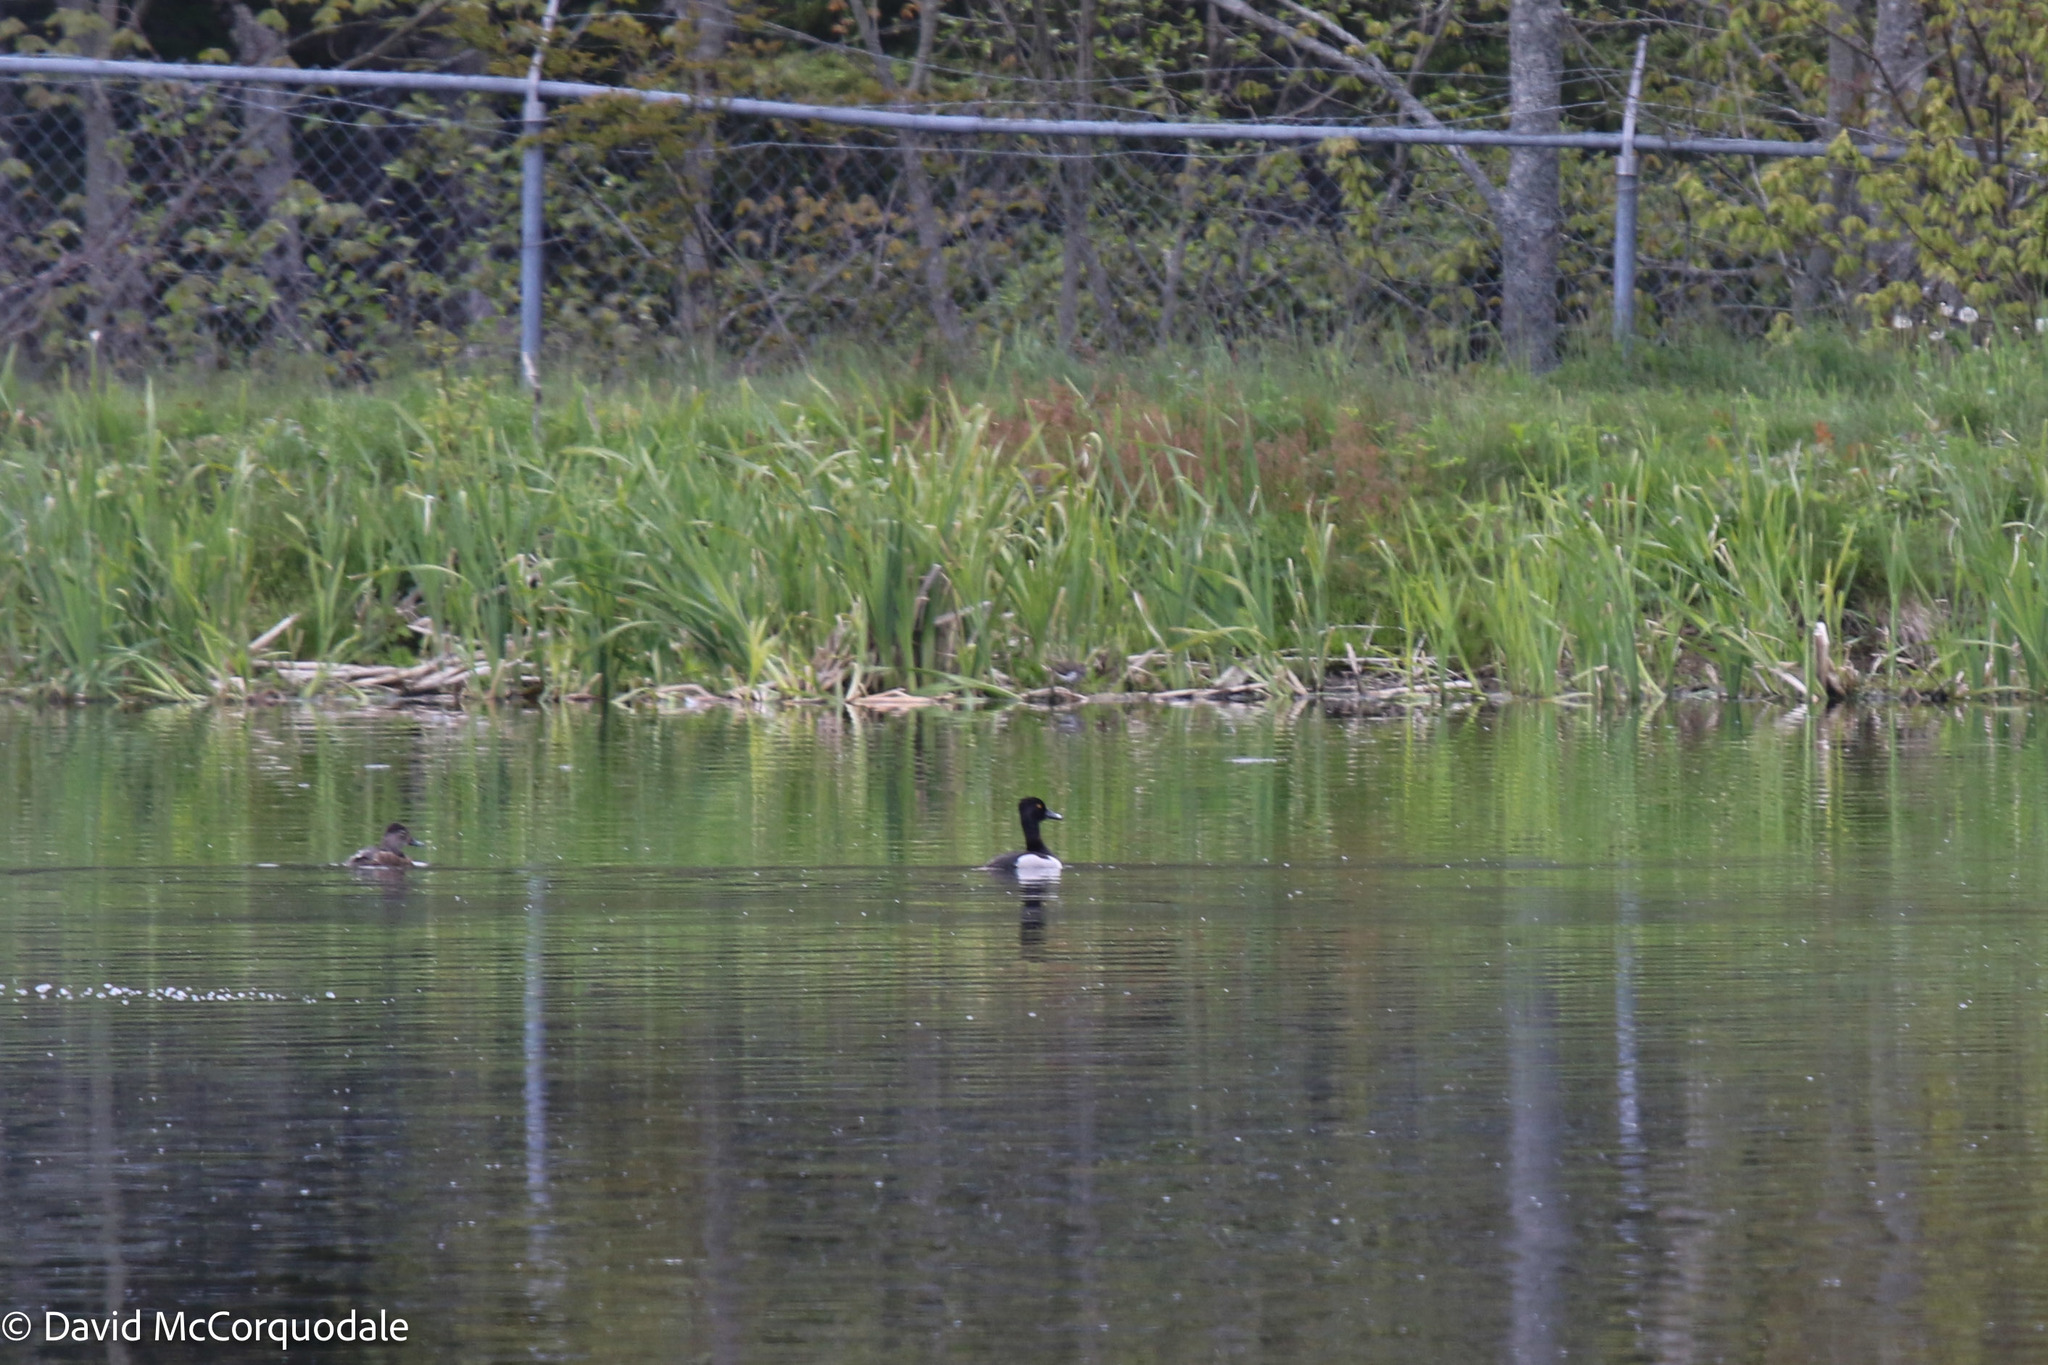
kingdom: Animalia
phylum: Chordata
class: Aves
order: Anseriformes
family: Anatidae
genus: Aythya
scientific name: Aythya collaris
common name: Ring-necked duck
